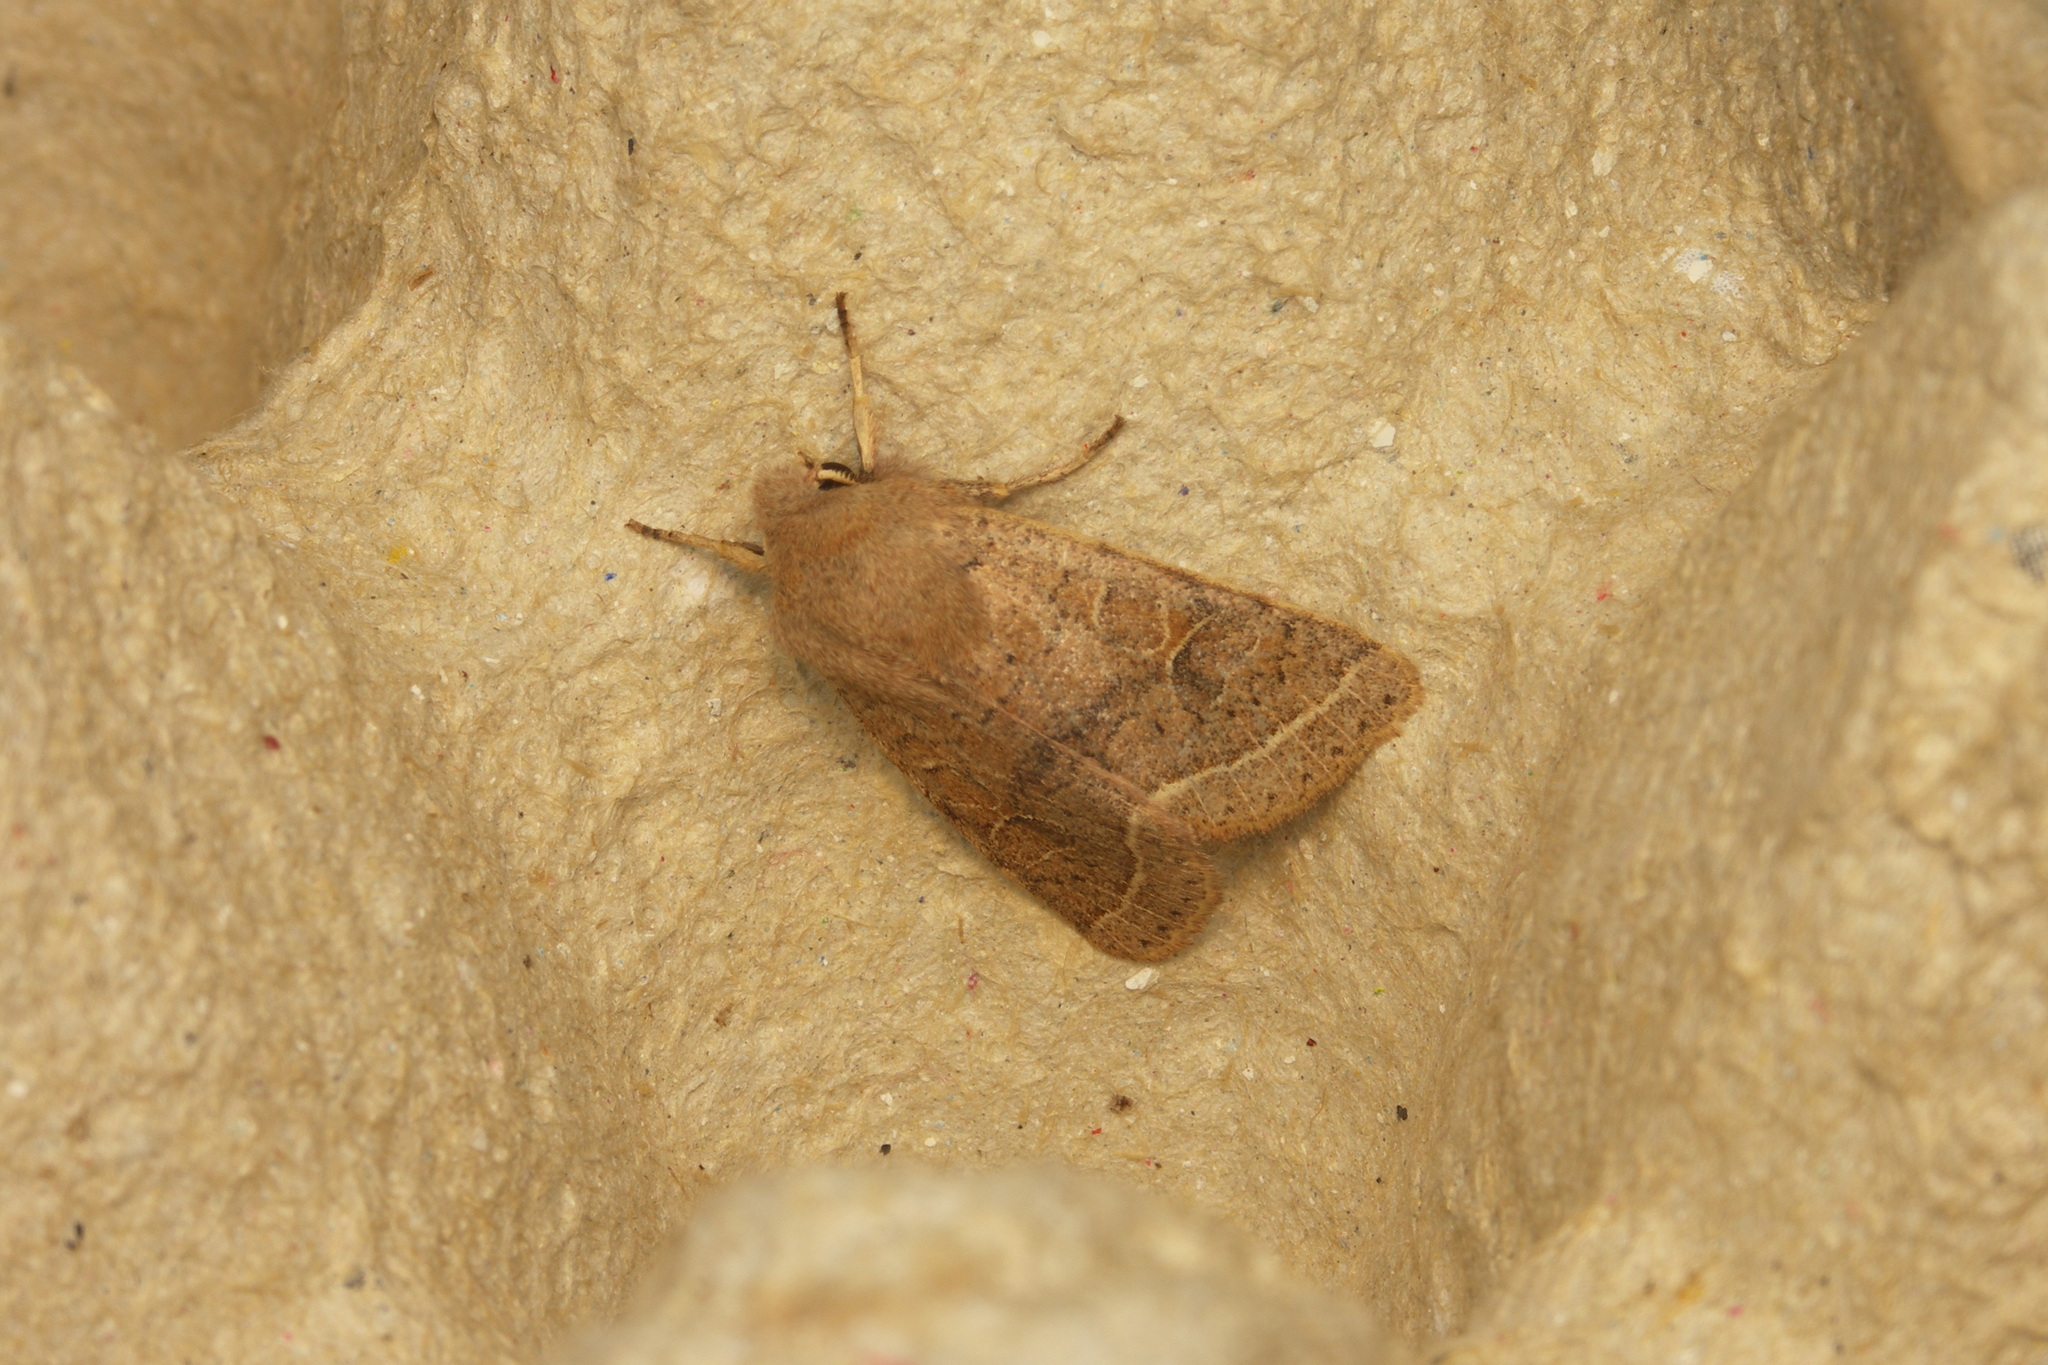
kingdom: Animalia
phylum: Arthropoda
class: Insecta
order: Lepidoptera
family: Noctuidae
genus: Orthosia
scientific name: Orthosia cerasi
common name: Common quaker
